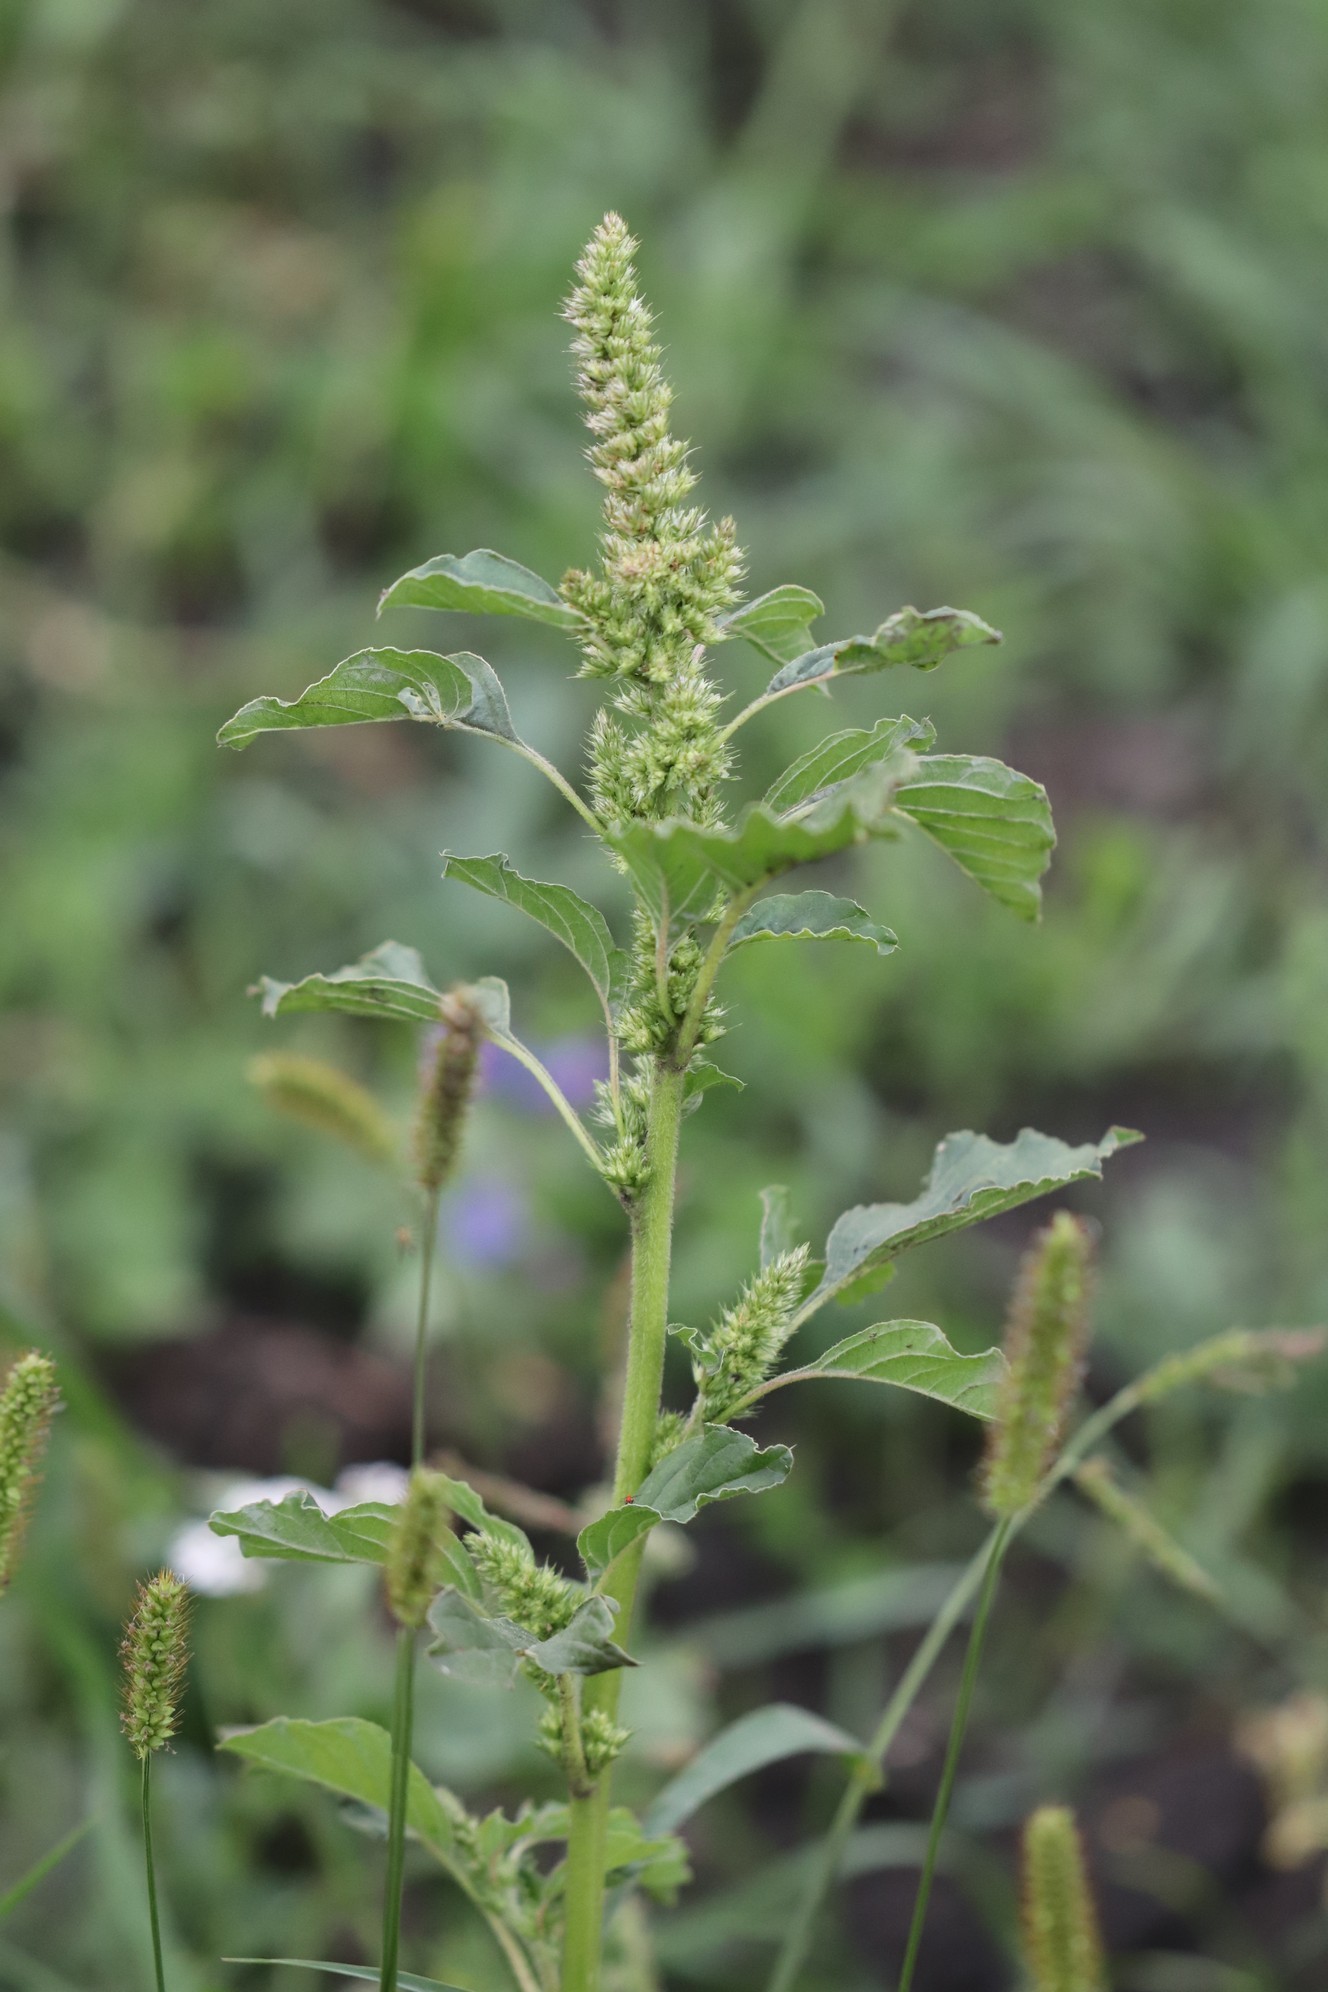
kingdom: Plantae
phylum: Tracheophyta
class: Magnoliopsida
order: Caryophyllales
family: Amaranthaceae
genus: Amaranthus
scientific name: Amaranthus retroflexus
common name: Redroot amaranth
